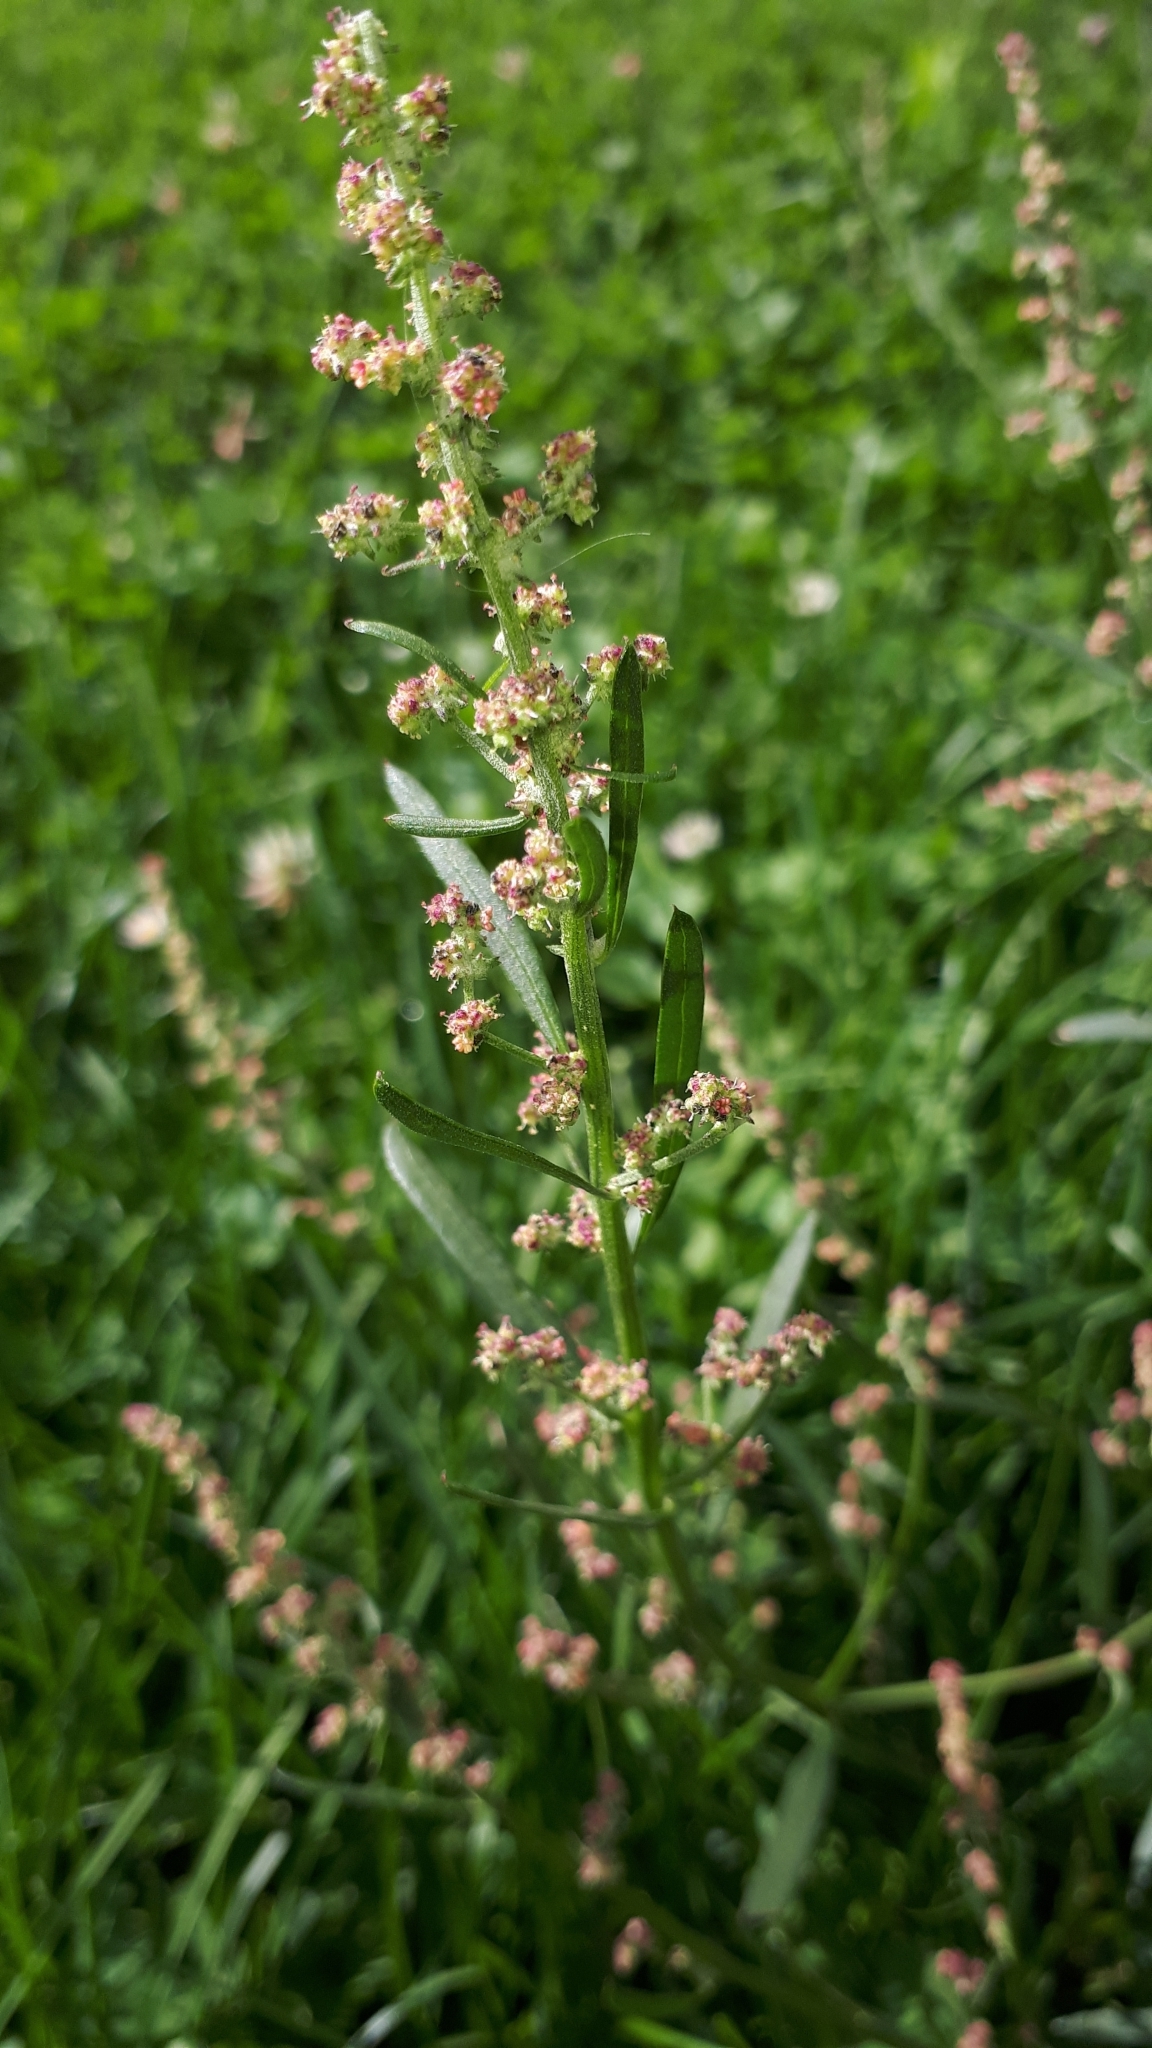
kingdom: Plantae
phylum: Tracheophyta
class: Magnoliopsida
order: Caryophyllales
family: Amaranthaceae
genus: Atriplex
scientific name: Atriplex patula
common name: Common orache
